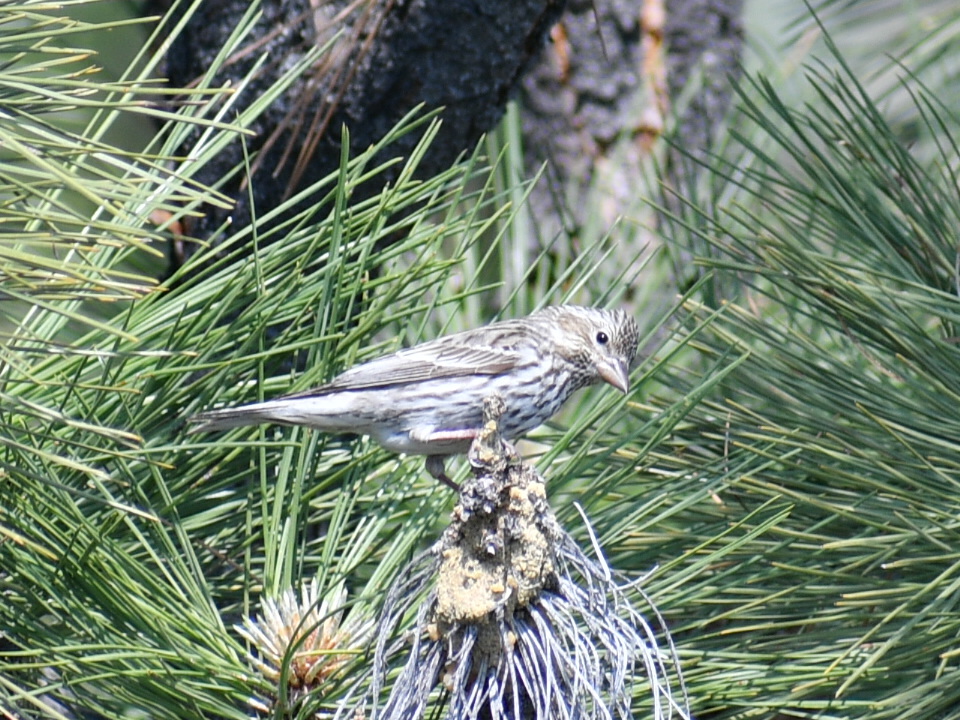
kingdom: Animalia
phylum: Chordata
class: Aves
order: Passeriformes
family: Fringillidae
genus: Haemorhous
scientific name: Haemorhous cassinii
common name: Cassin's finch
